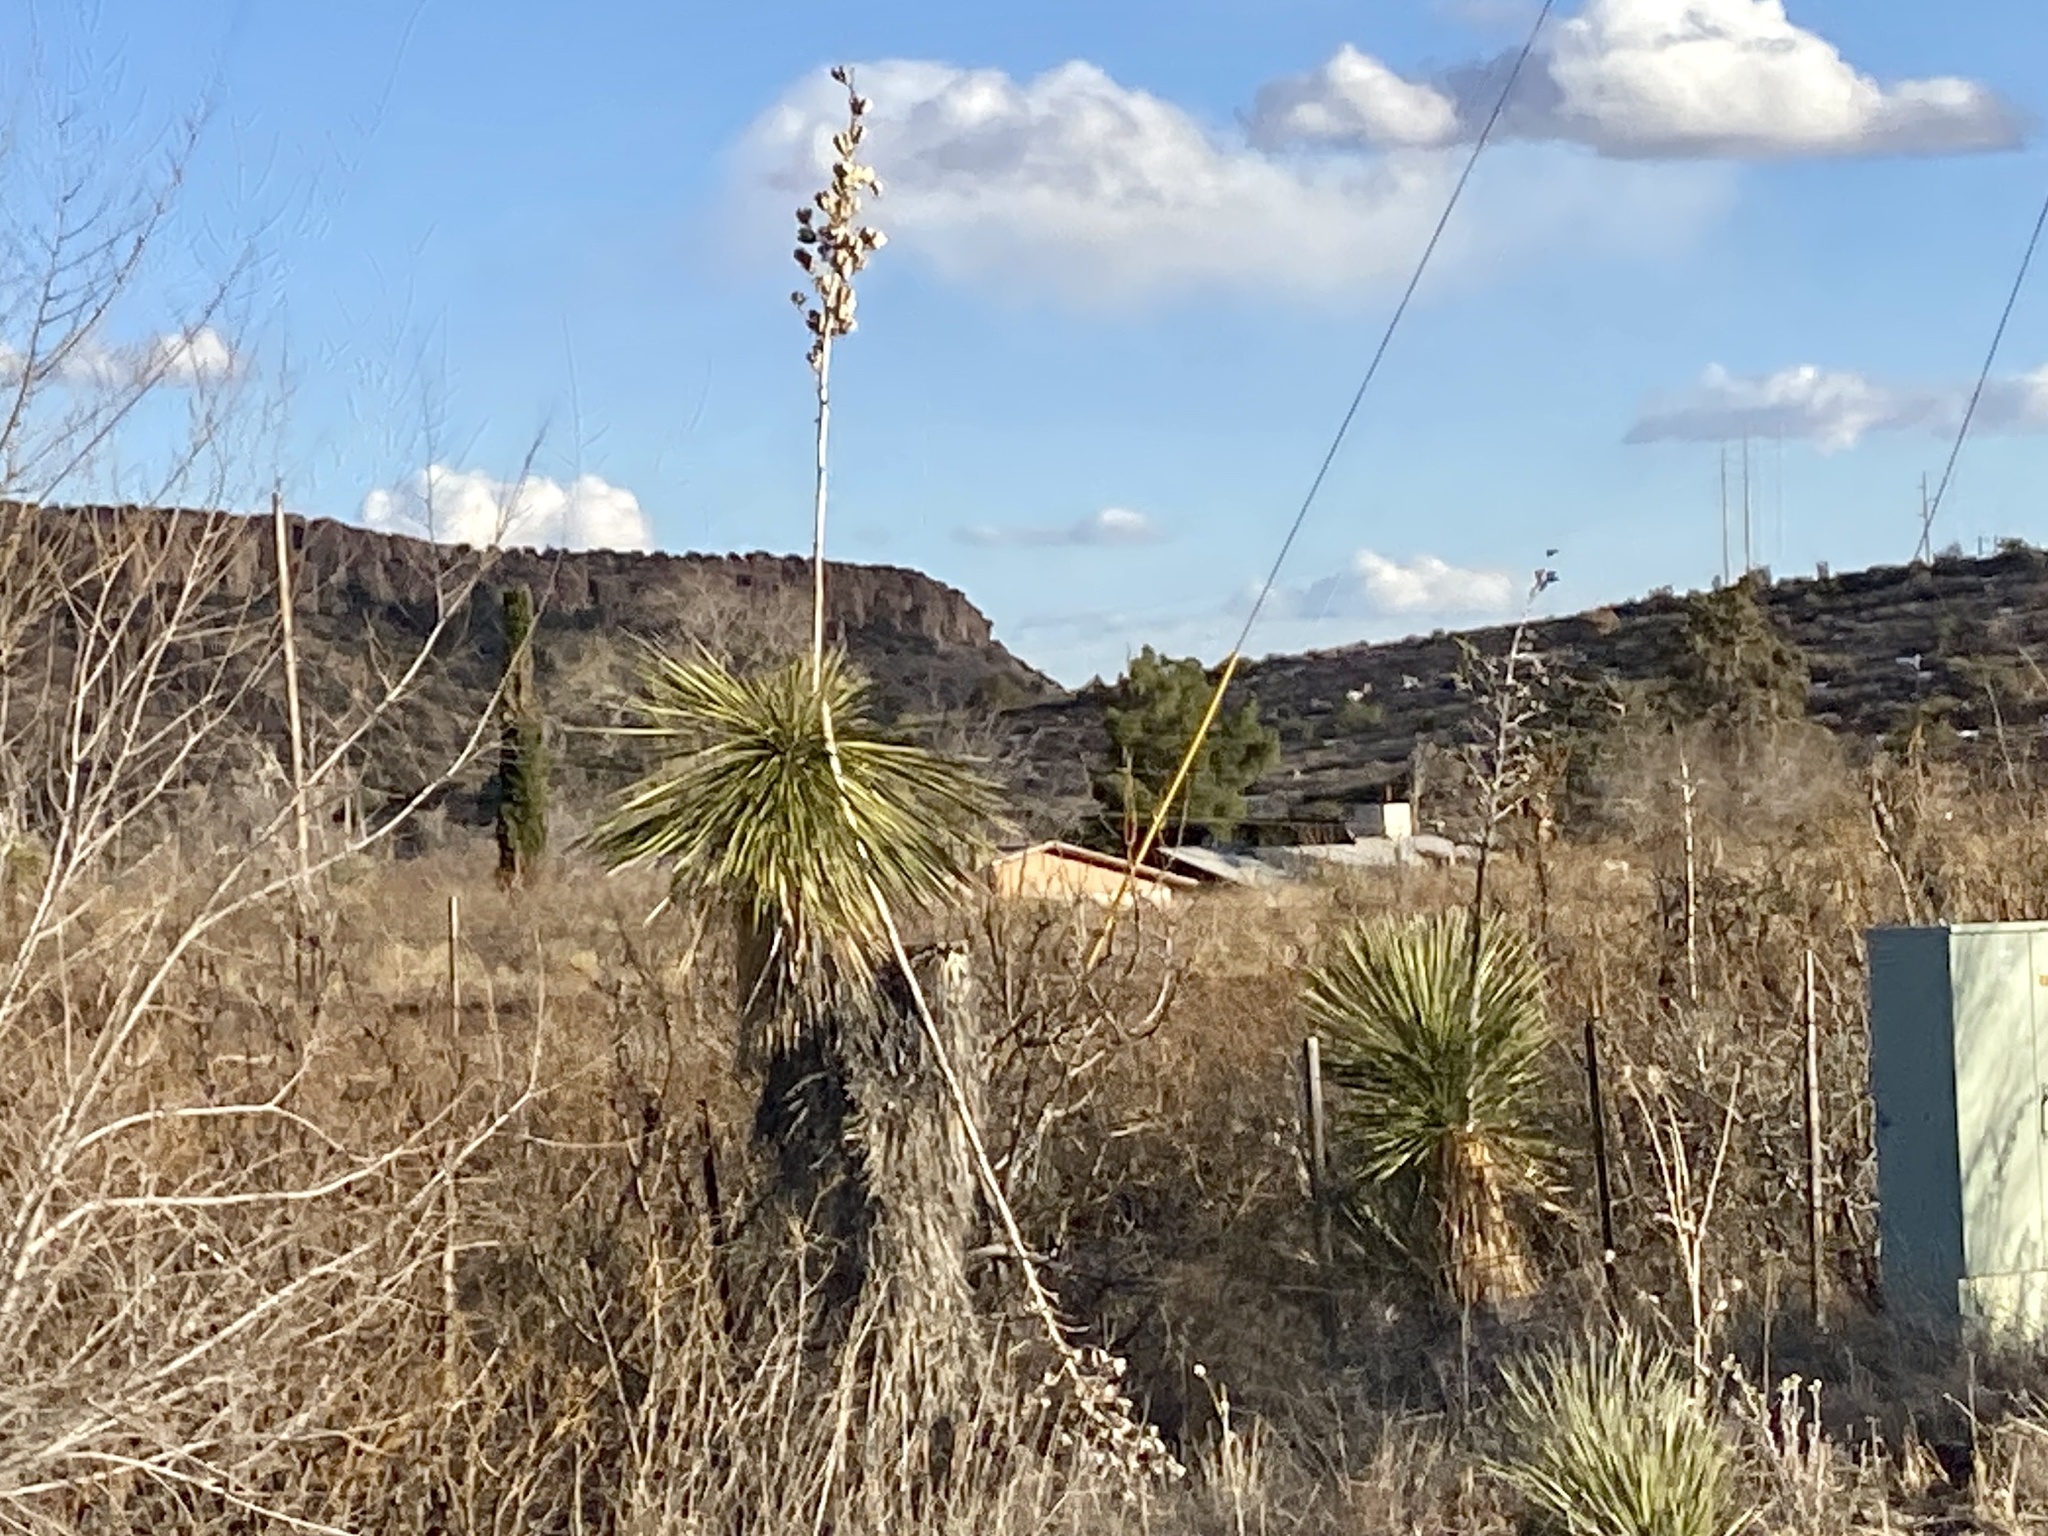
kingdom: Plantae
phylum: Tracheophyta
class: Liliopsida
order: Asparagales
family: Asparagaceae
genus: Yucca
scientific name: Yucca elata
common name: Palmella
